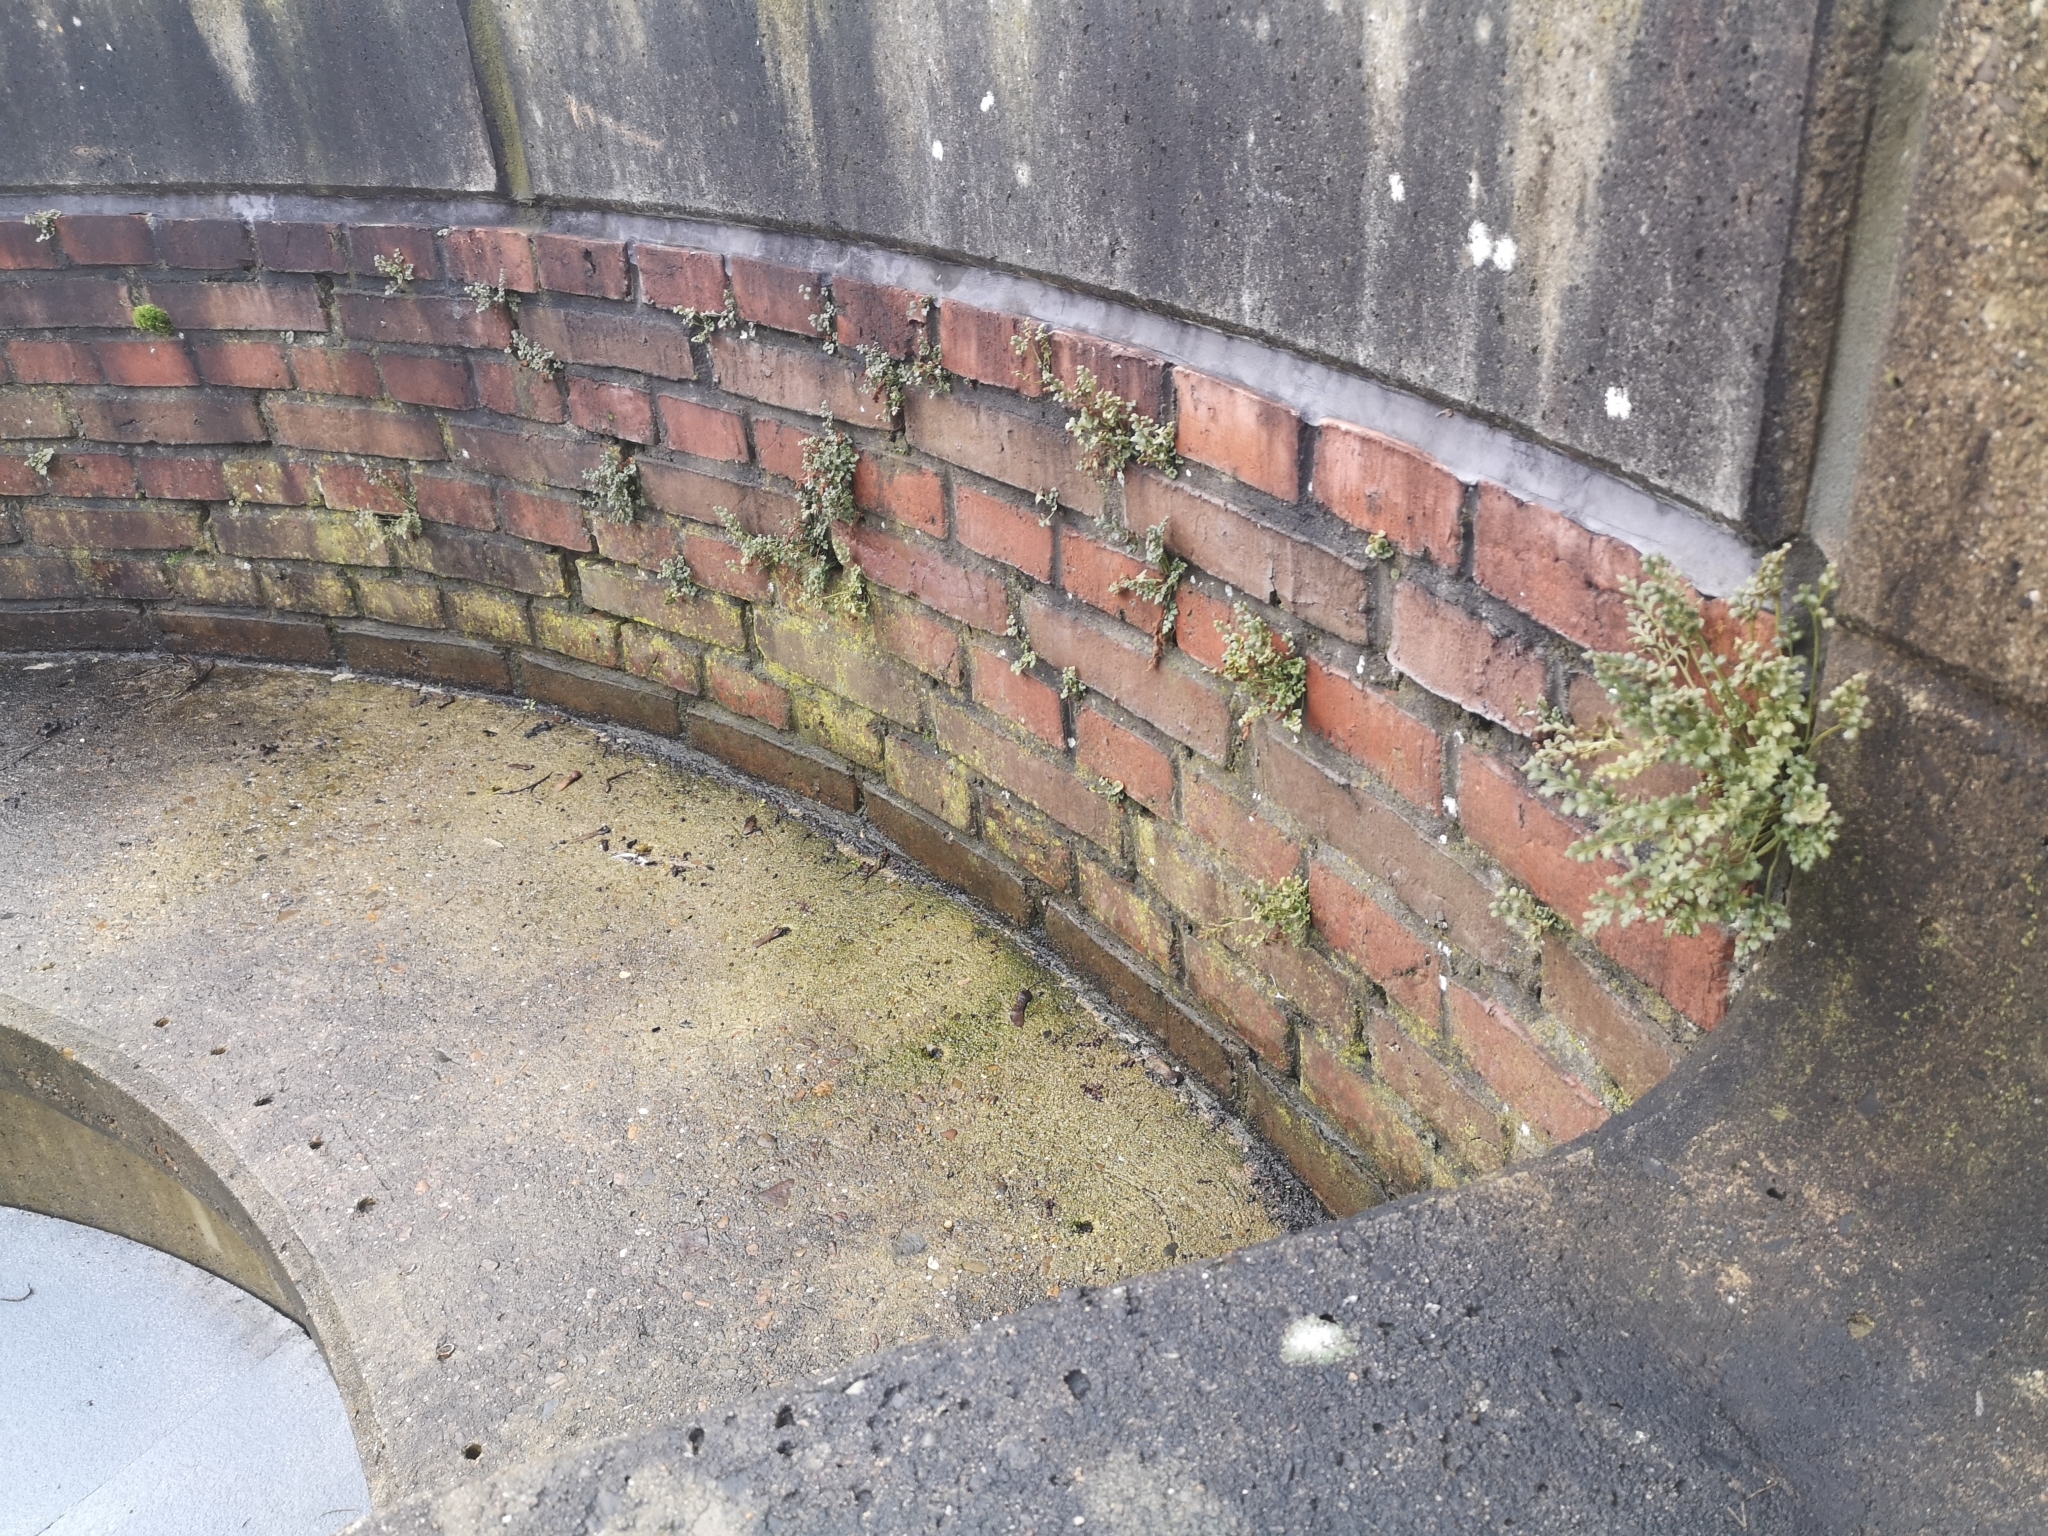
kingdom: Plantae
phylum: Tracheophyta
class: Polypodiopsida
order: Polypodiales
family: Aspleniaceae
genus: Asplenium
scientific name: Asplenium ruta-muraria
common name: Wall-rue
